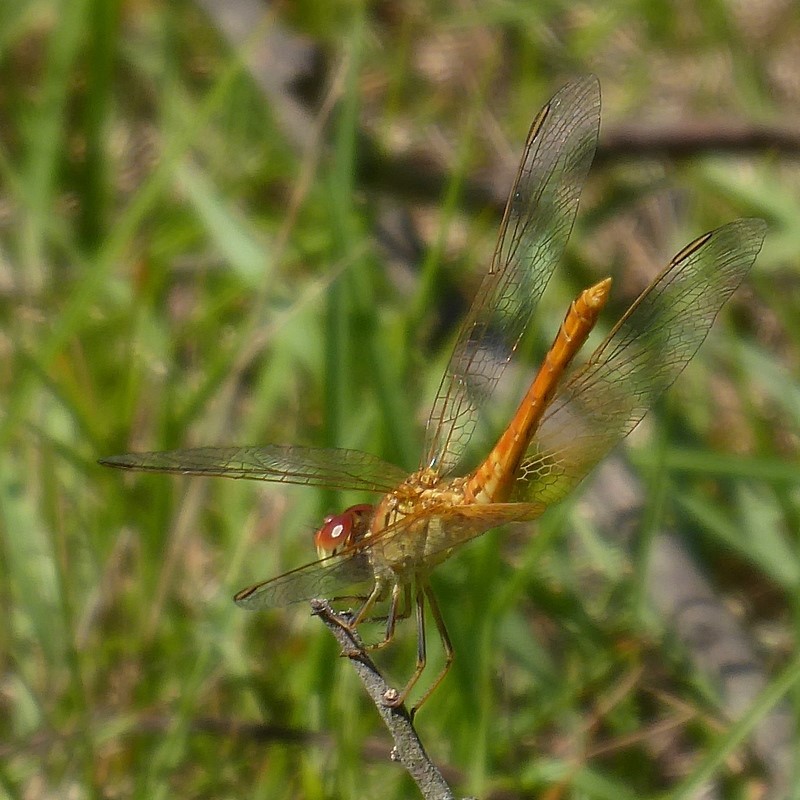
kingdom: Animalia
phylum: Arthropoda
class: Insecta
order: Odonata
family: Libellulidae
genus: Diplacodes
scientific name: Diplacodes haematodes
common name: Scarlet percher
